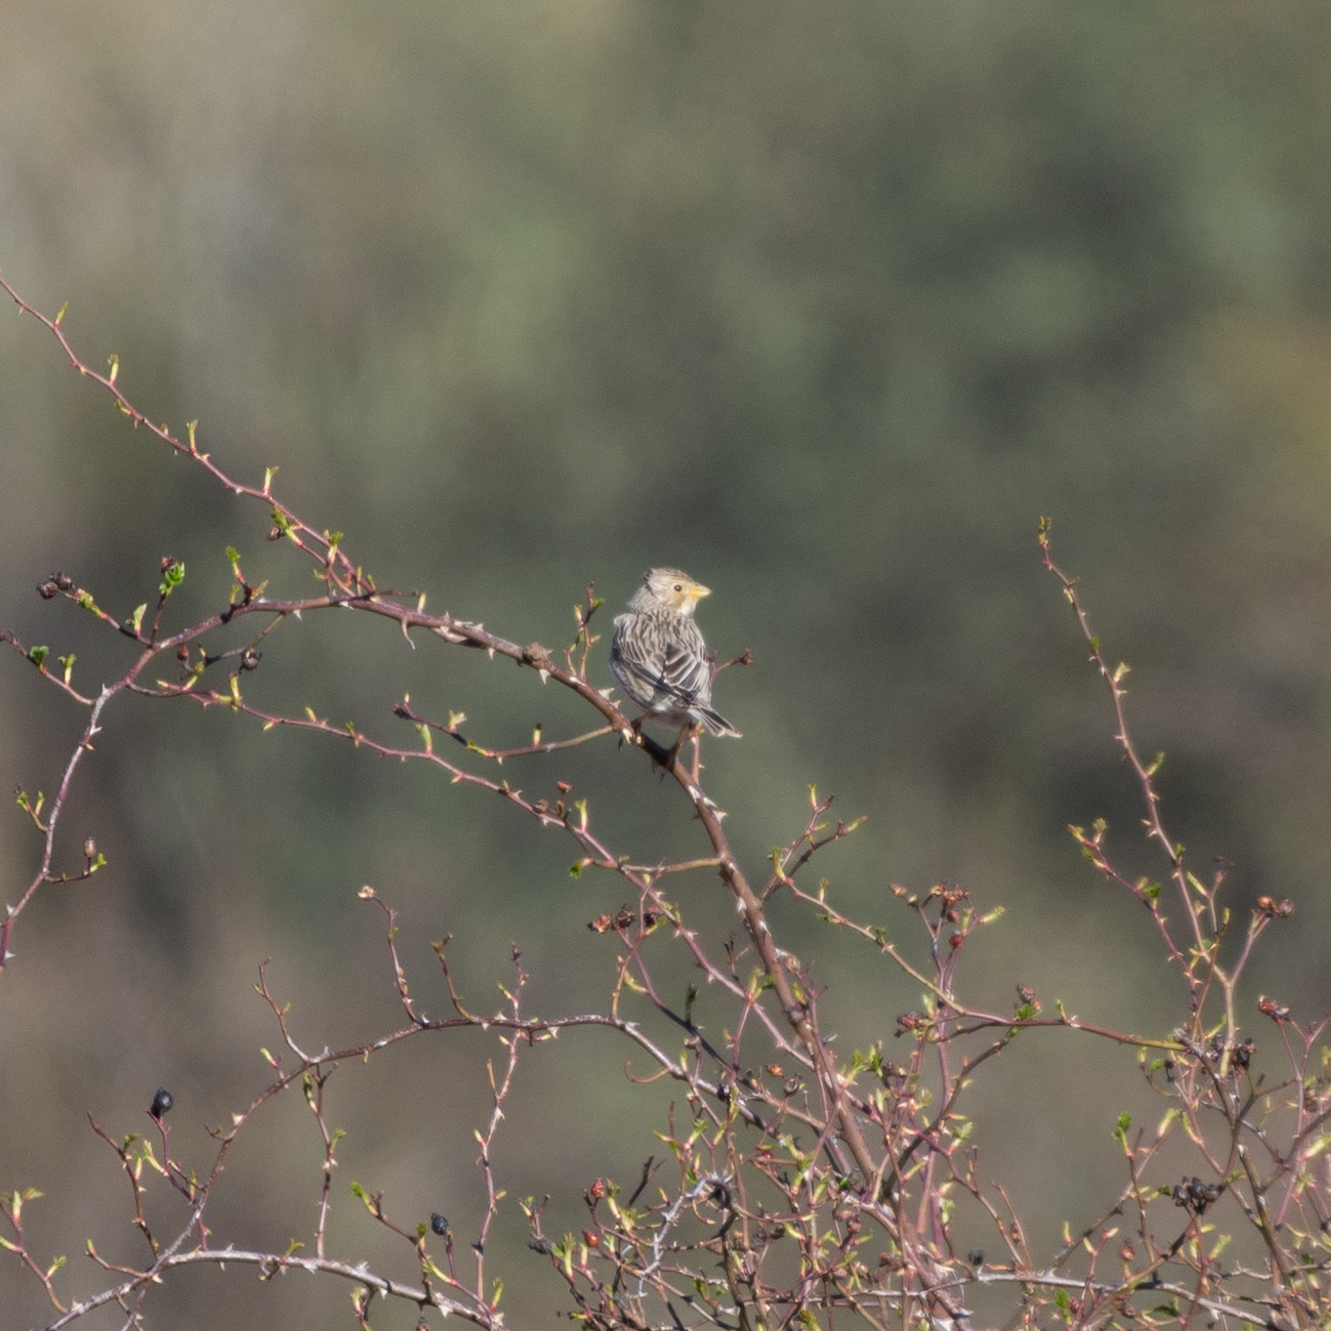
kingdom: Animalia
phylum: Chordata
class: Aves
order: Passeriformes
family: Emberizidae
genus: Emberiza
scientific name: Emberiza calandra
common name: Corn bunting
